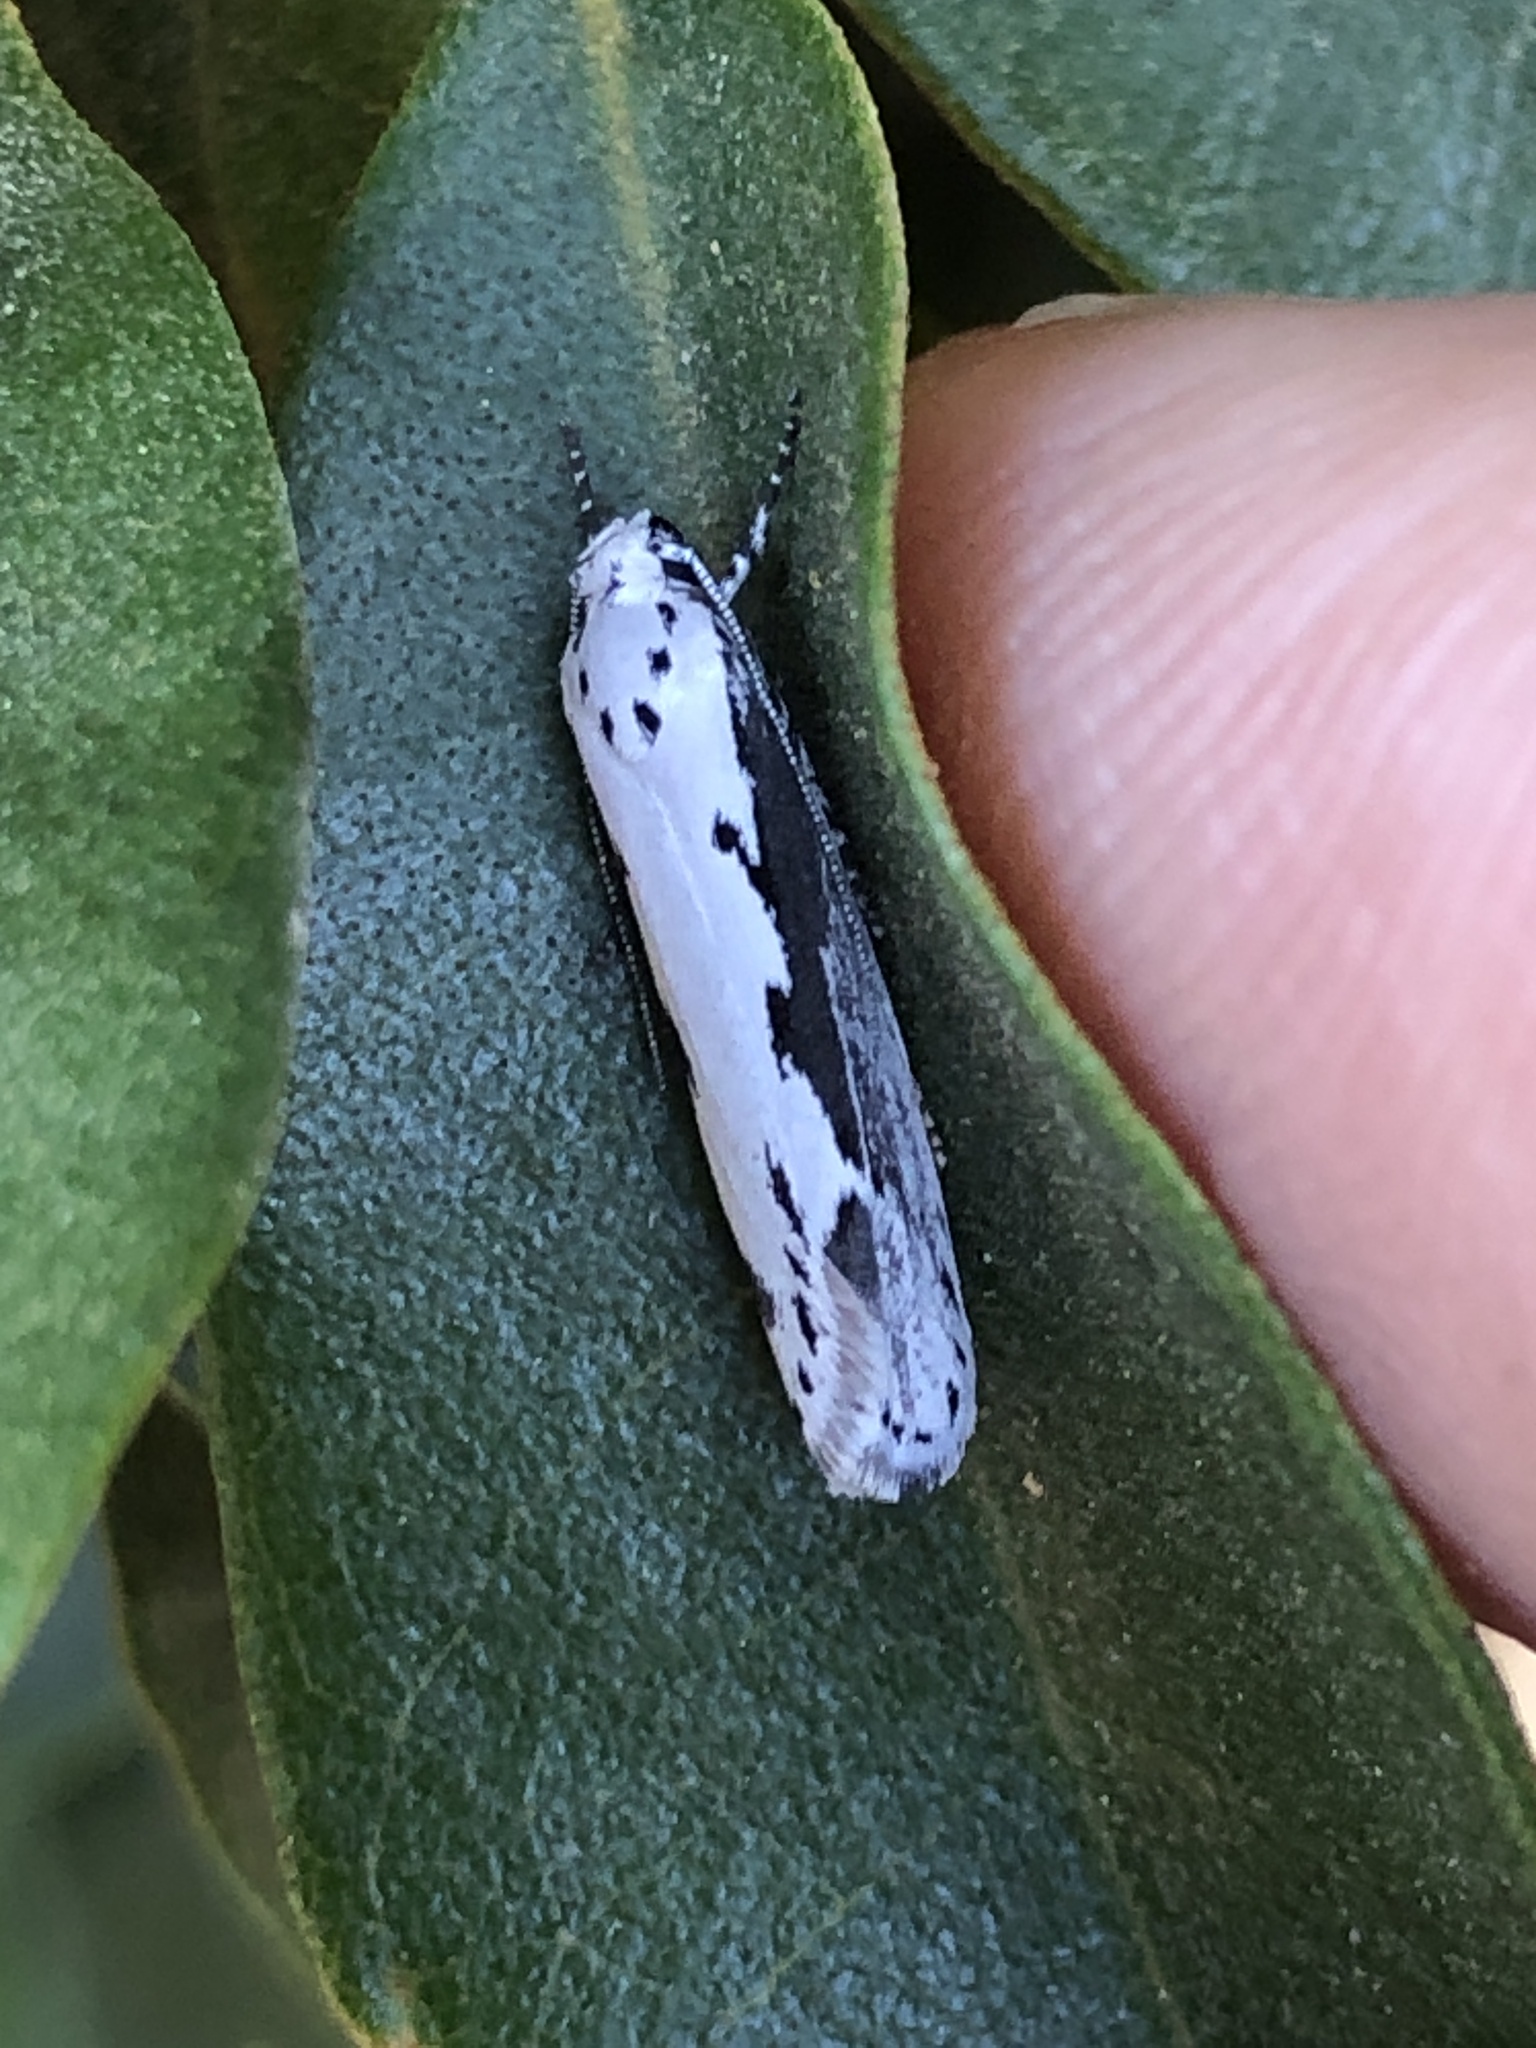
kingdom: Animalia
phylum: Arthropoda
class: Insecta
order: Lepidoptera
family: Ethmiidae
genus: Ethmia
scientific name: Ethmia discostrigella
